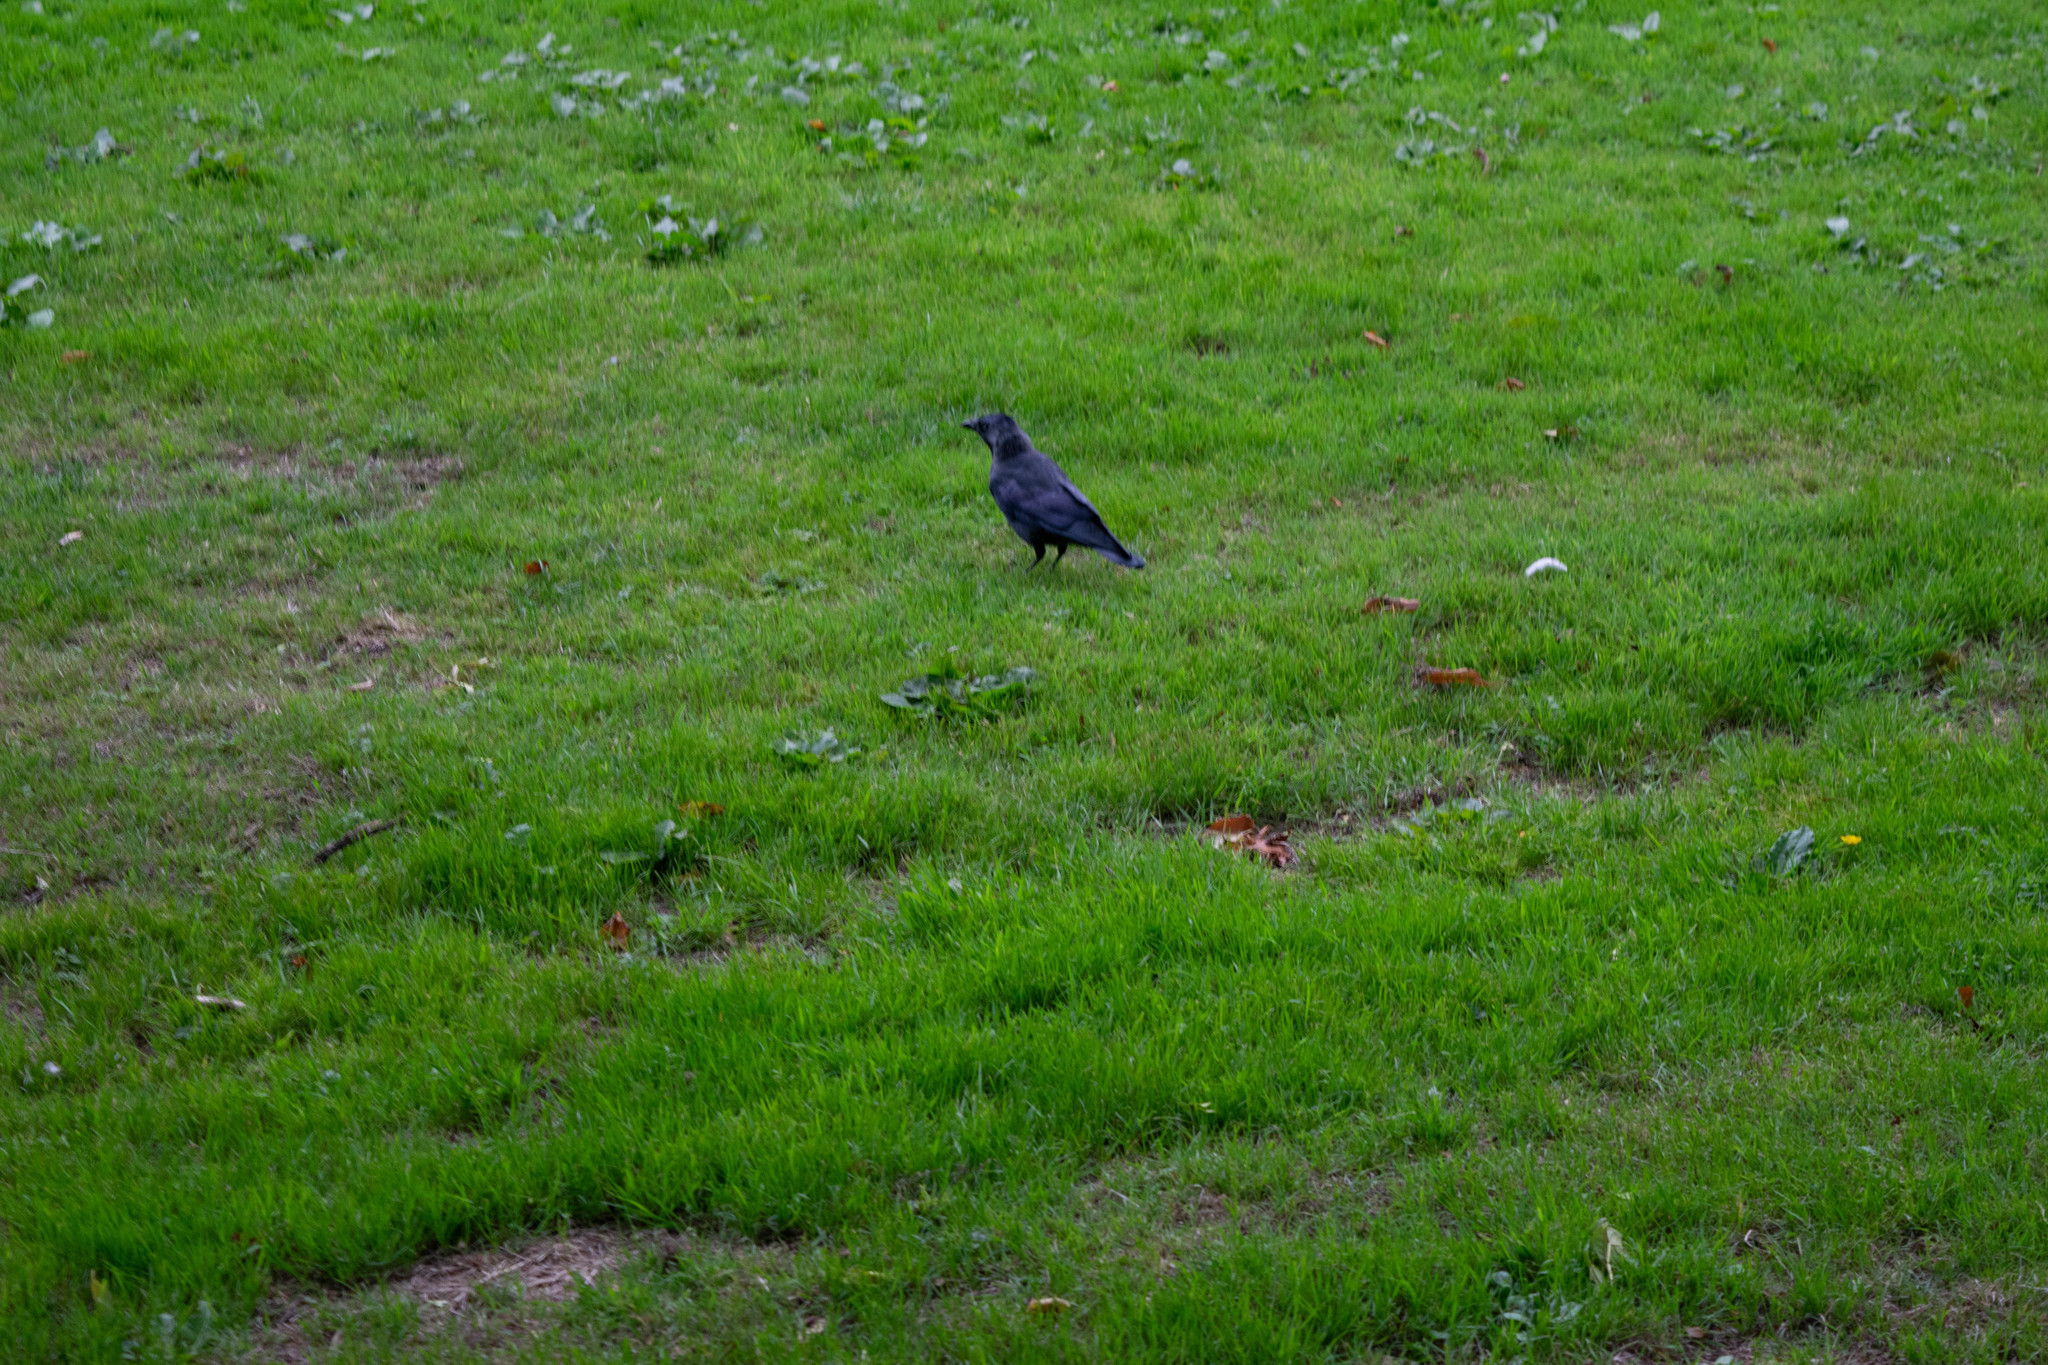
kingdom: Animalia
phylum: Chordata
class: Aves
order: Passeriformes
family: Corvidae
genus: Coloeus
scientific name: Coloeus monedula
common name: Western jackdaw
